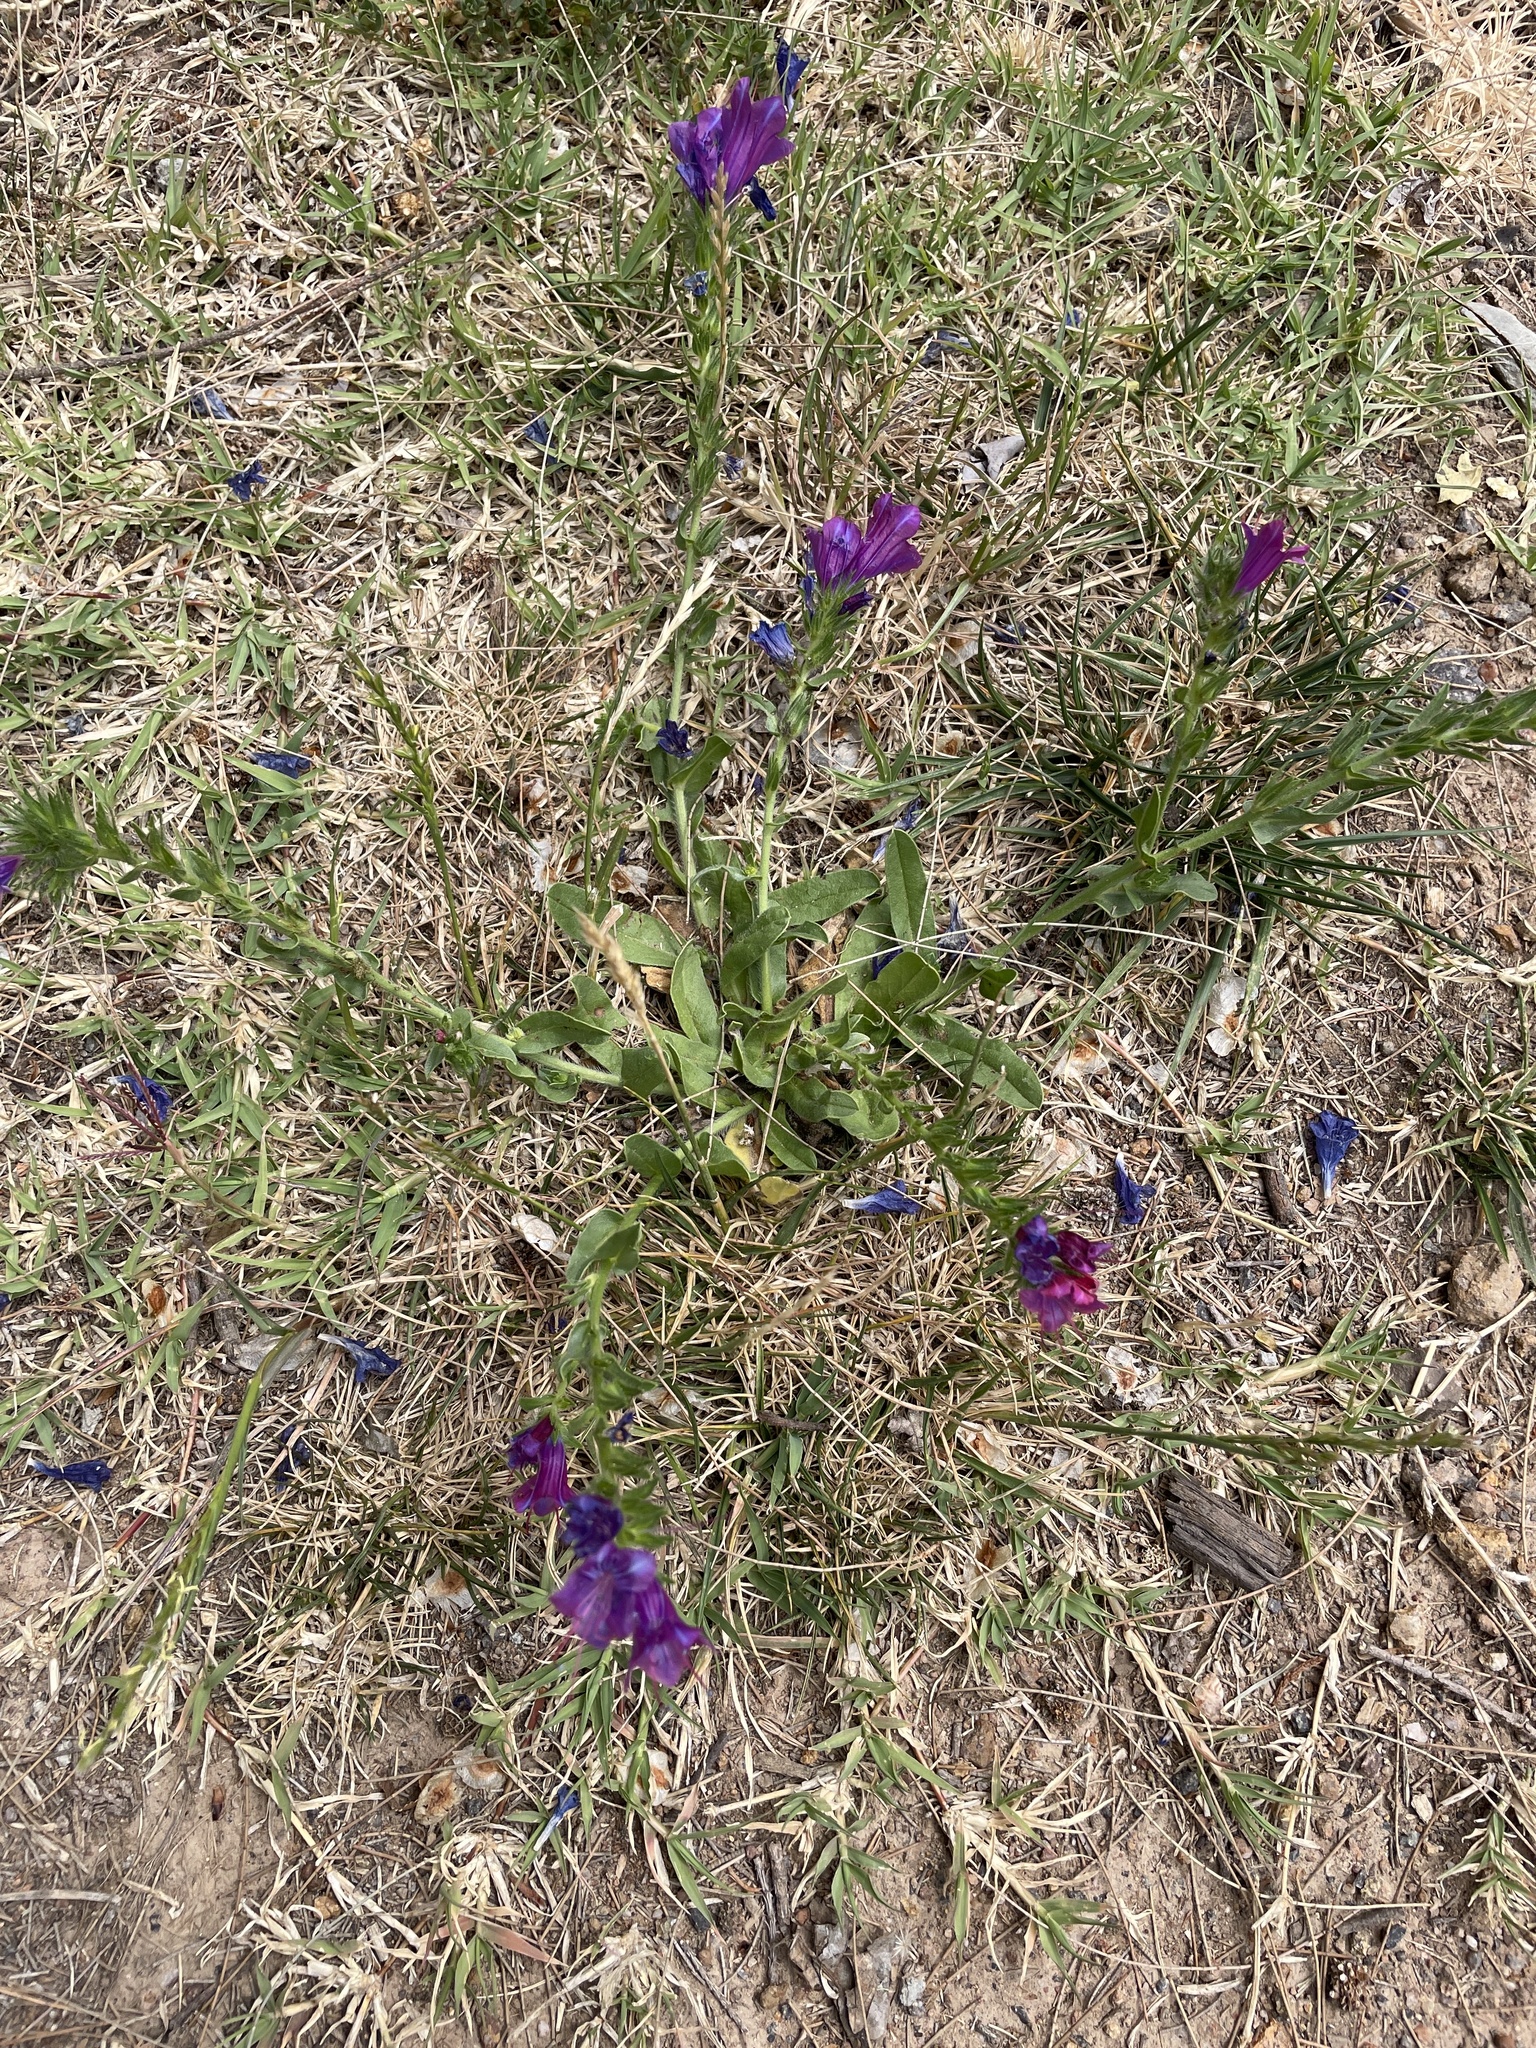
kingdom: Plantae
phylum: Tracheophyta
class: Magnoliopsida
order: Boraginales
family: Boraginaceae
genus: Echium
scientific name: Echium plantagineum
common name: Purple viper's-bugloss
